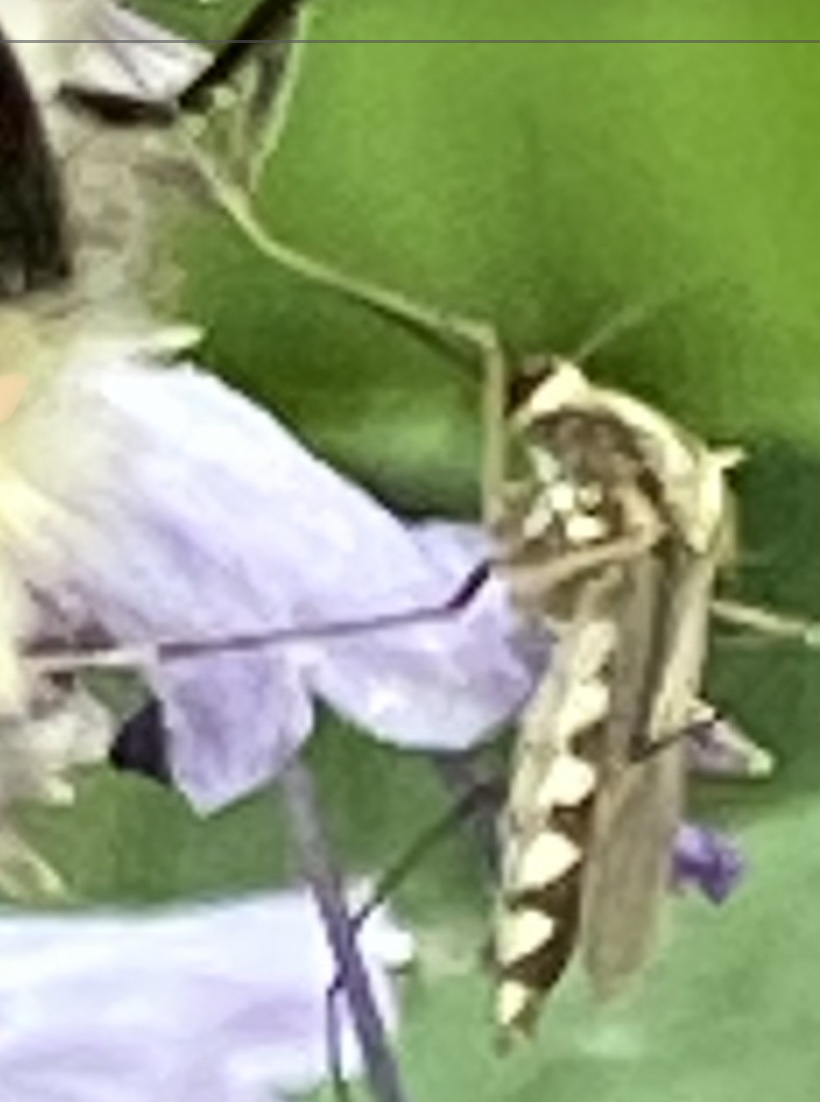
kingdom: Animalia
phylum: Arthropoda
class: Insecta
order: Diptera
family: Culicidae
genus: Aedes
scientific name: Aedes trivittatus
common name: Plains floodwater mosquito
